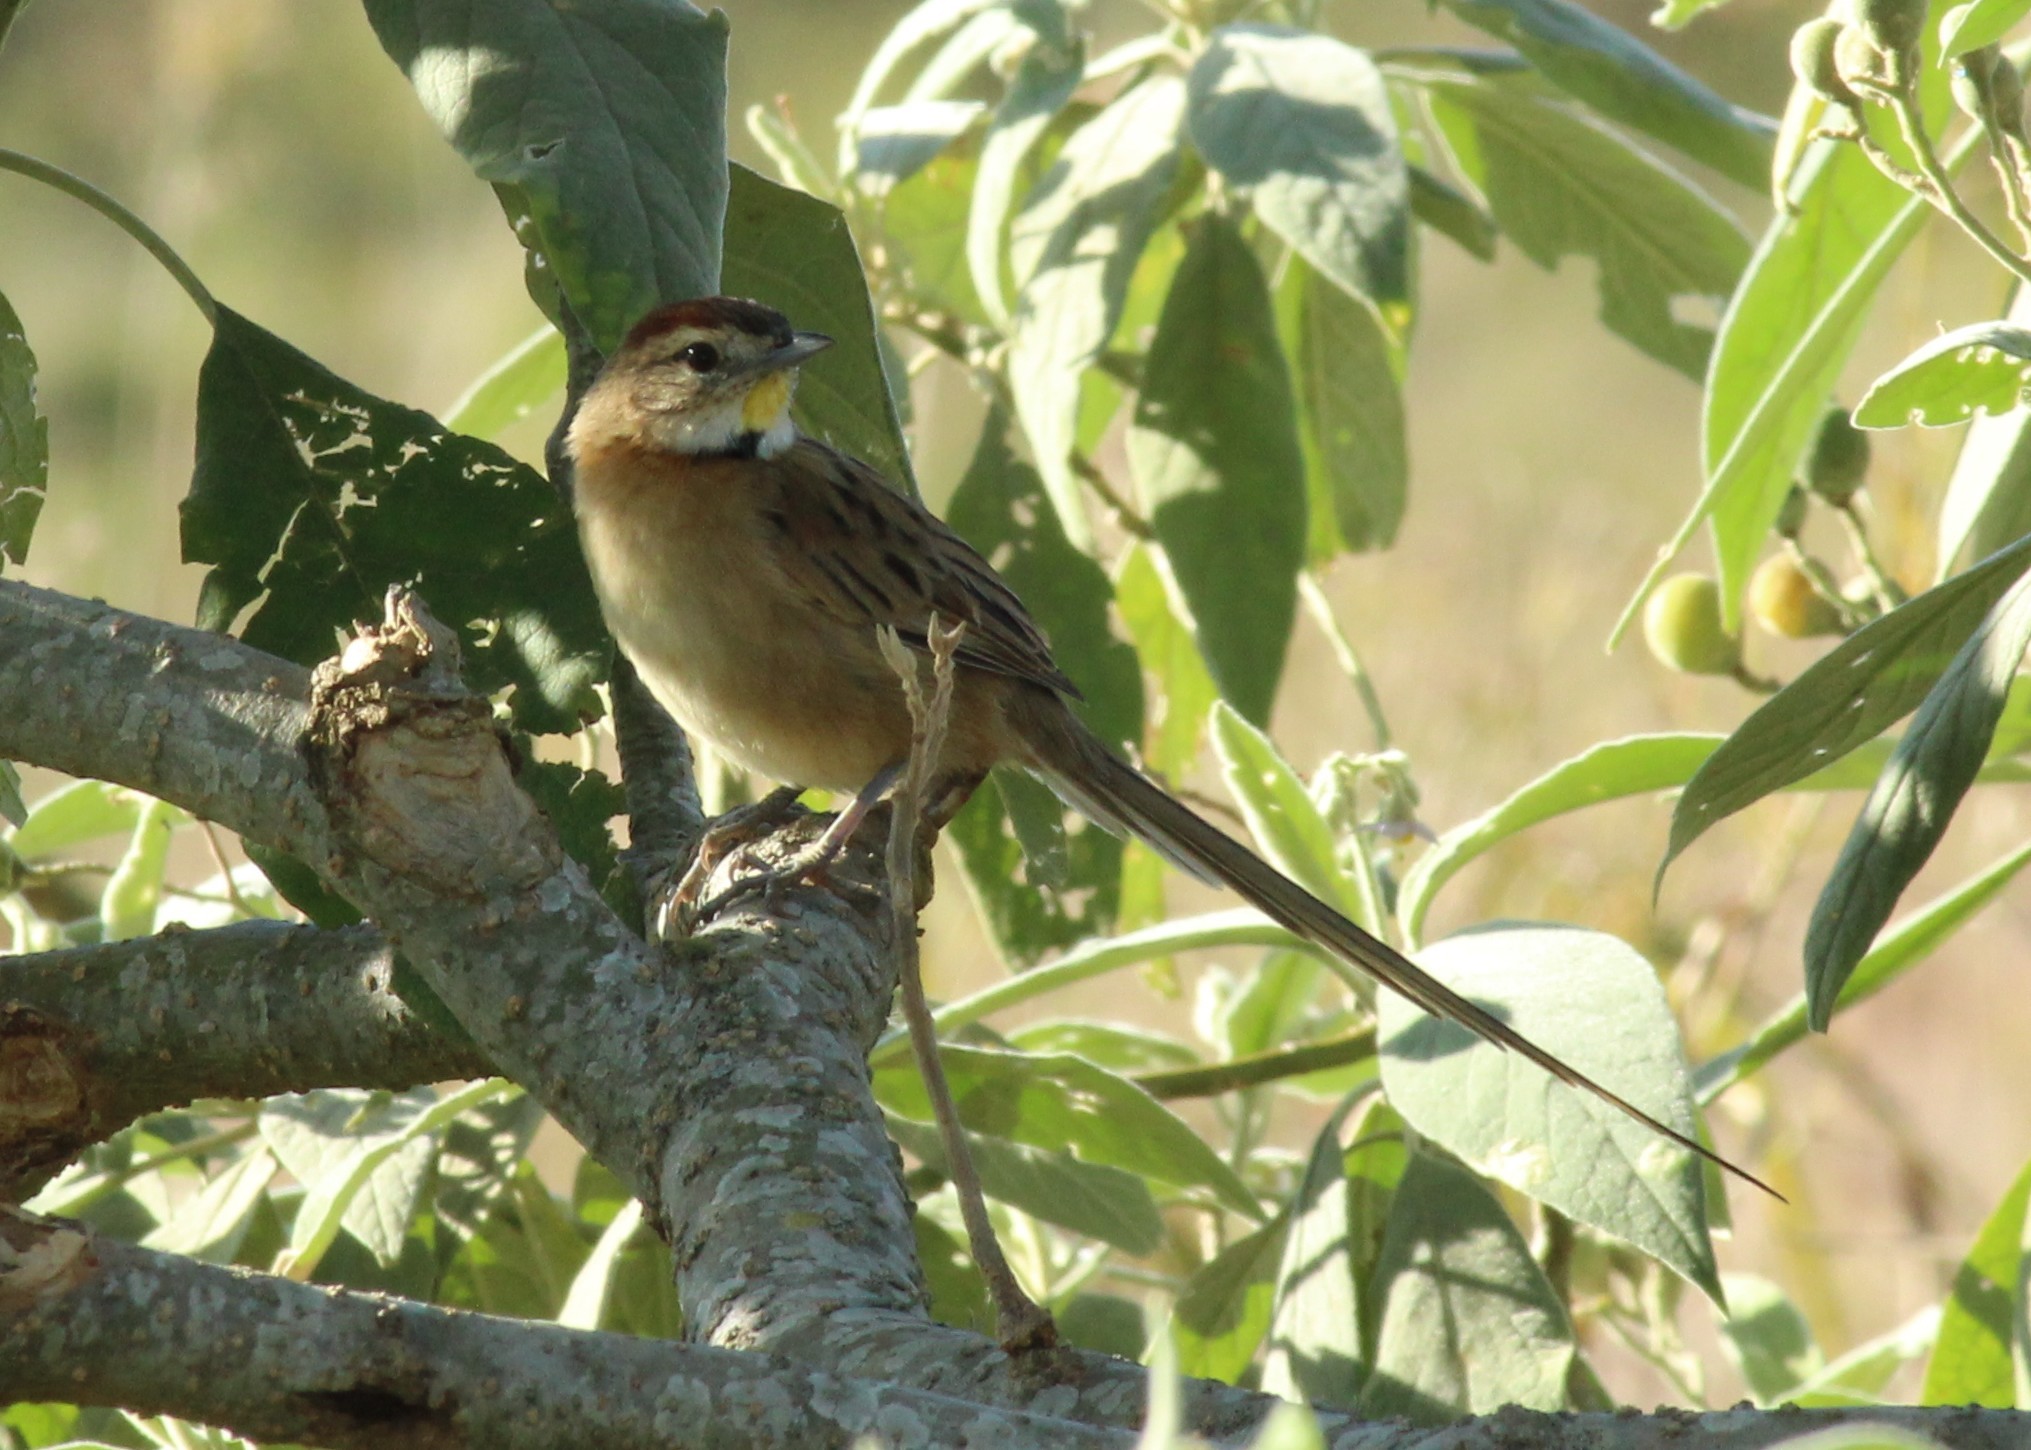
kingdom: Animalia
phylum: Chordata
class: Aves
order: Passeriformes
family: Furnariidae
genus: Schoeniophylax
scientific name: Schoeniophylax phryganophilus
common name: Chotoy spinetail
